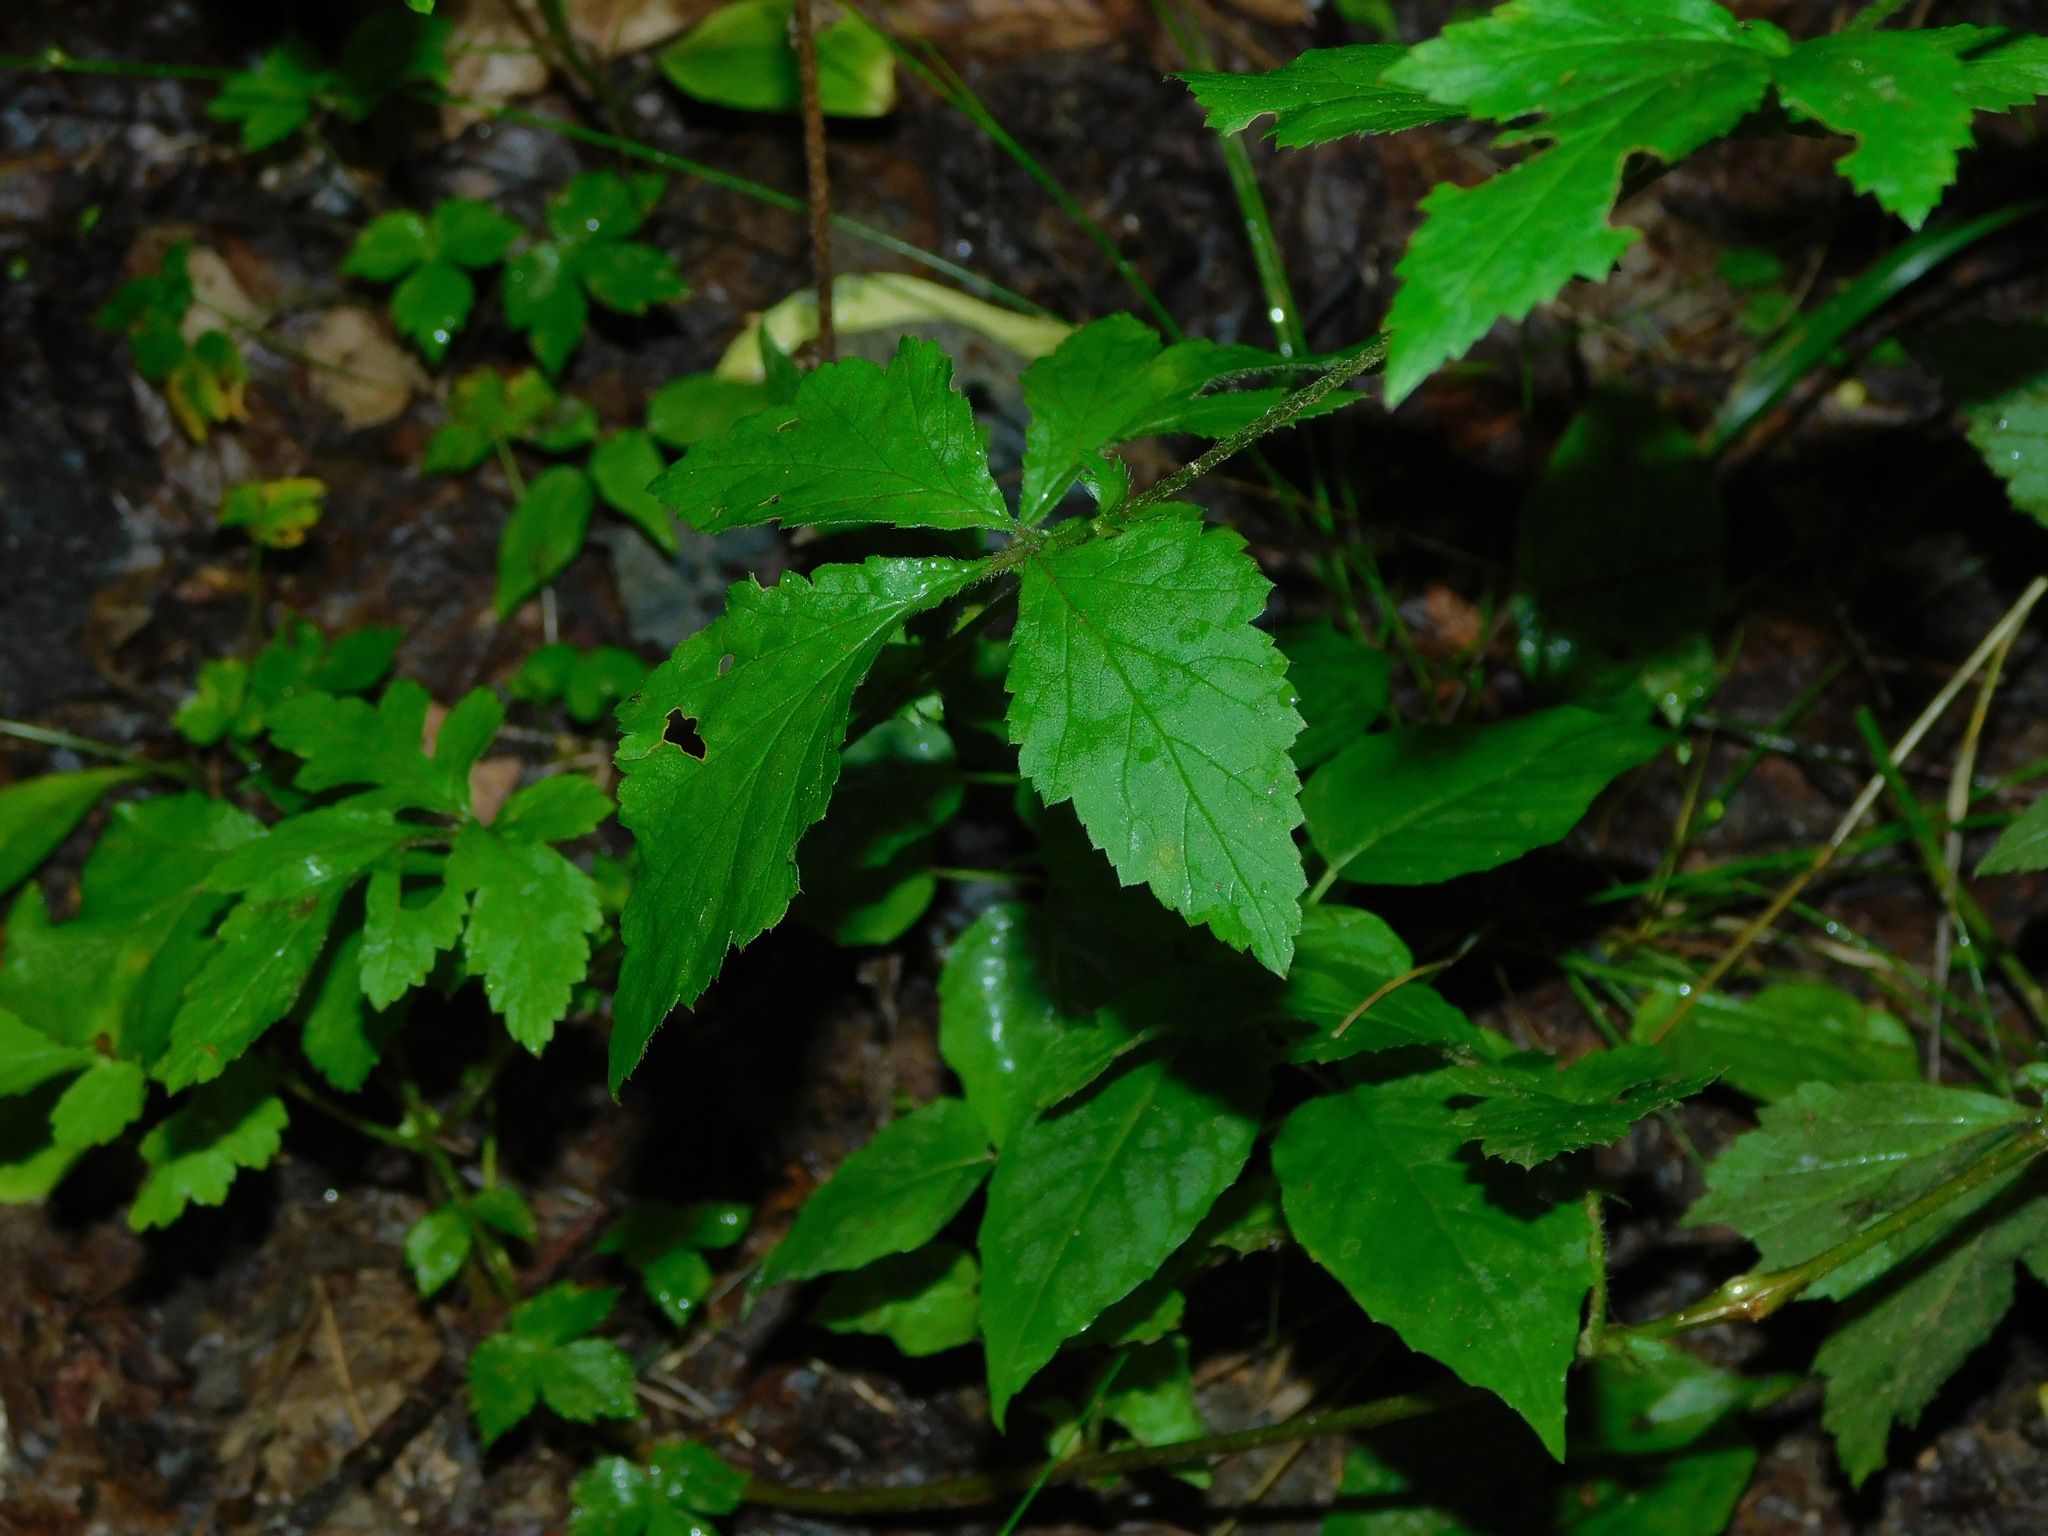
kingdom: Plantae
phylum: Tracheophyta
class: Magnoliopsida
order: Rosales
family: Rosaceae
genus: Geum
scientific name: Geum canadense
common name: White avens
